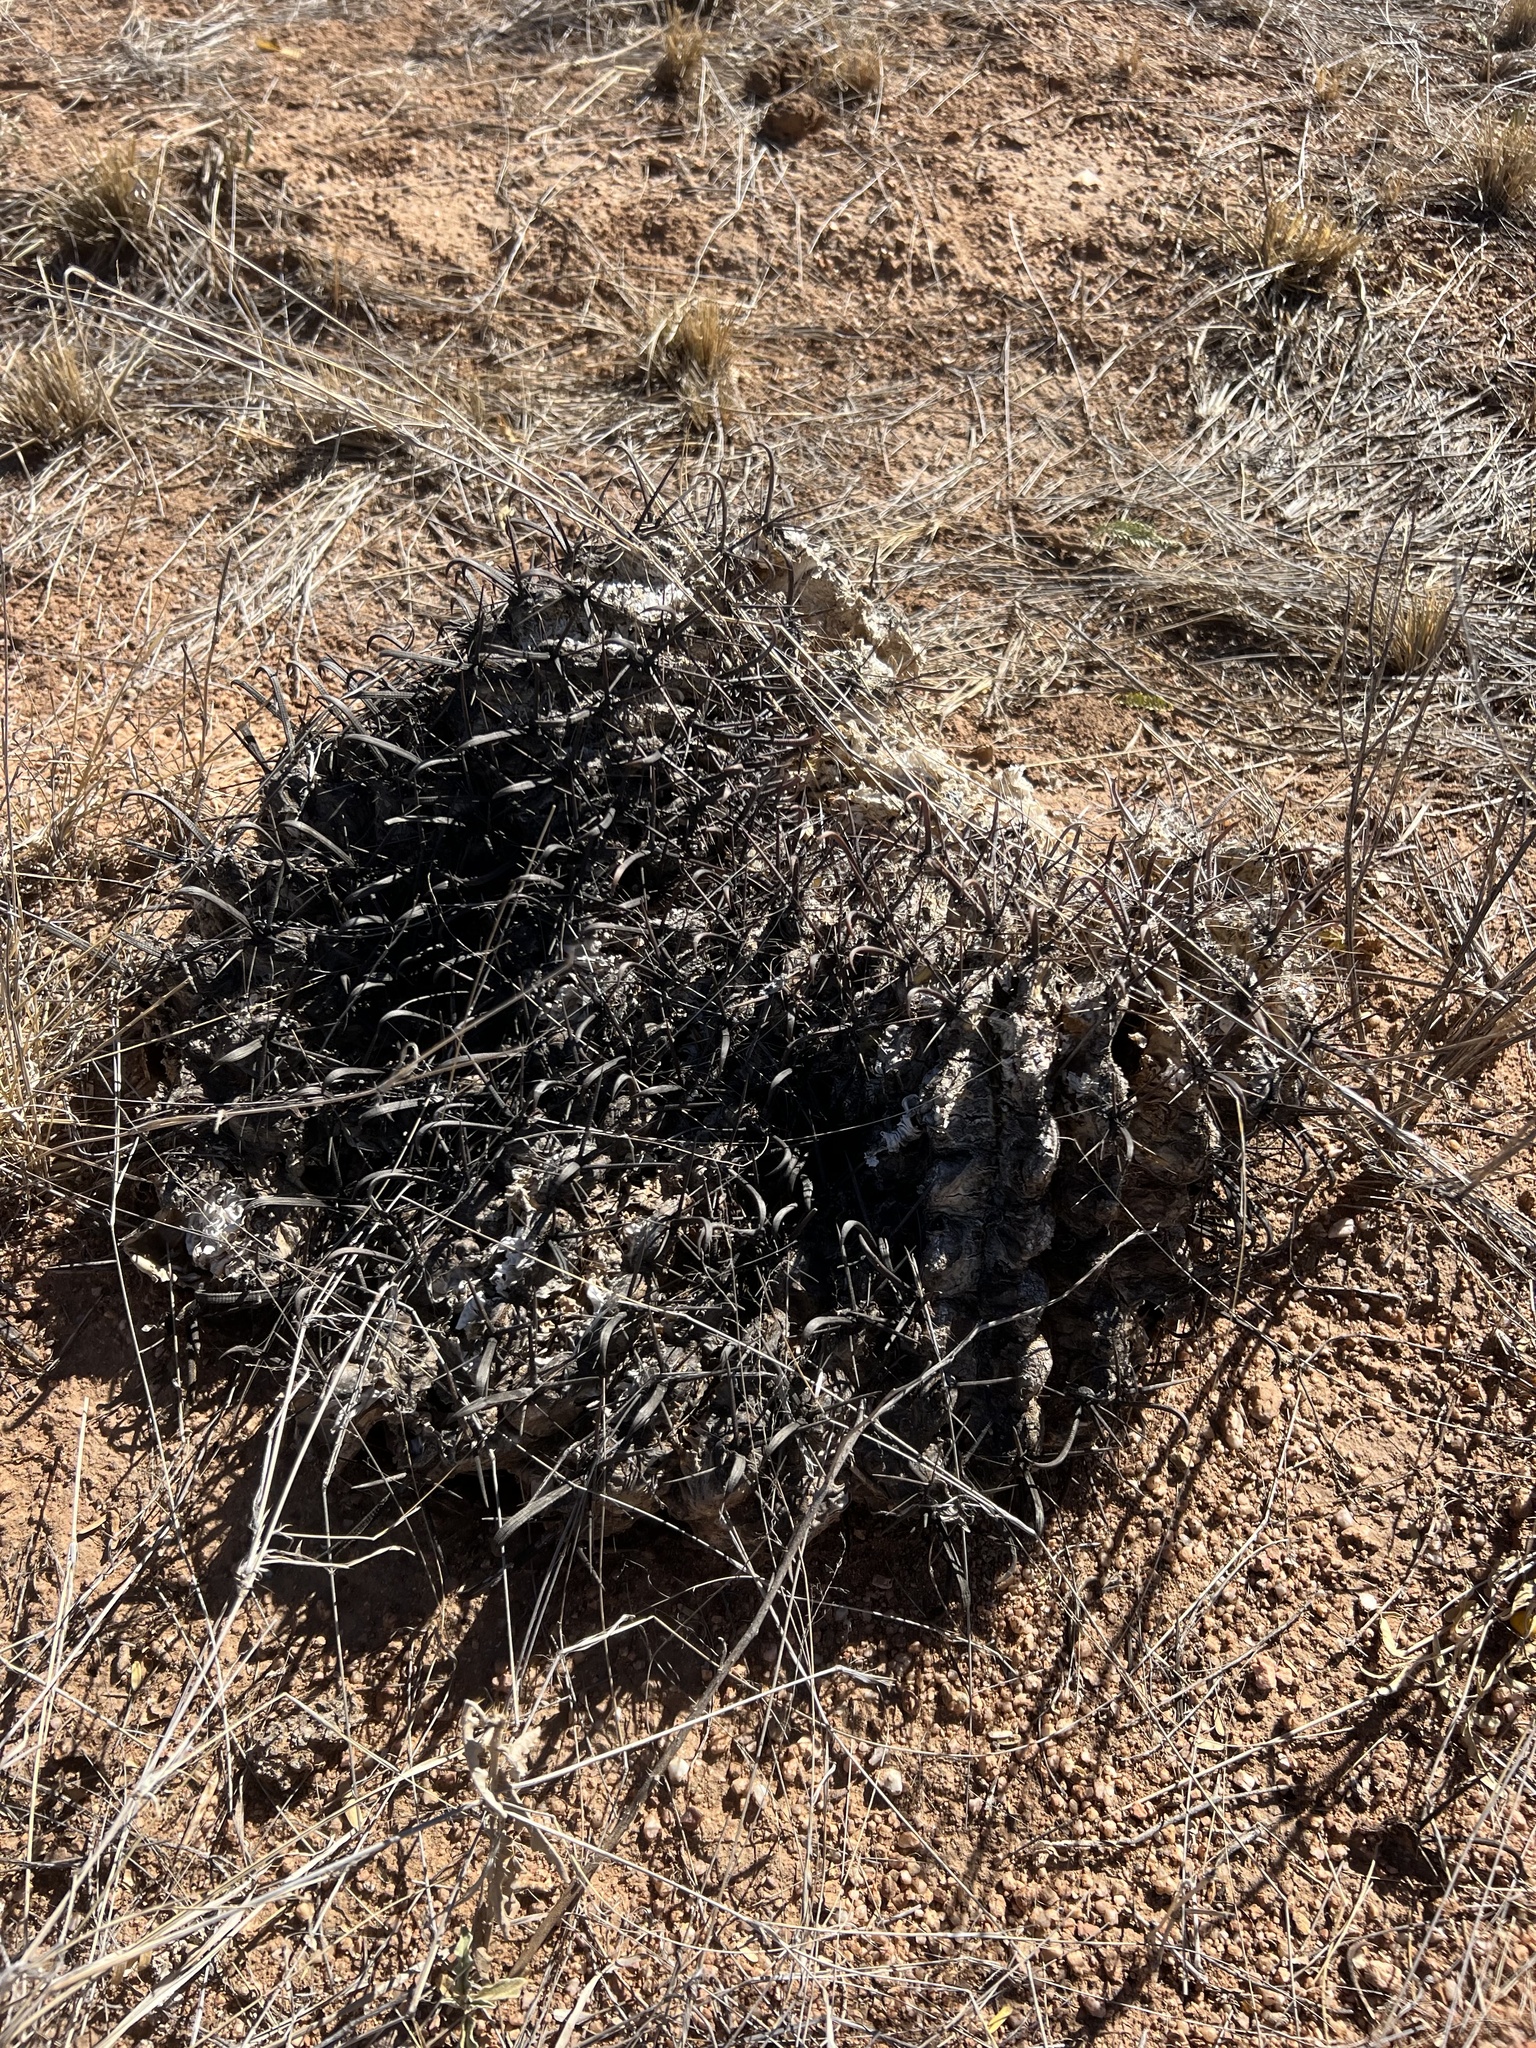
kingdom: Plantae
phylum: Tracheophyta
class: Magnoliopsida
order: Caryophyllales
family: Cactaceae
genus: Ferocactus
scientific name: Ferocactus wislizeni
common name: Candy barrel cactus
